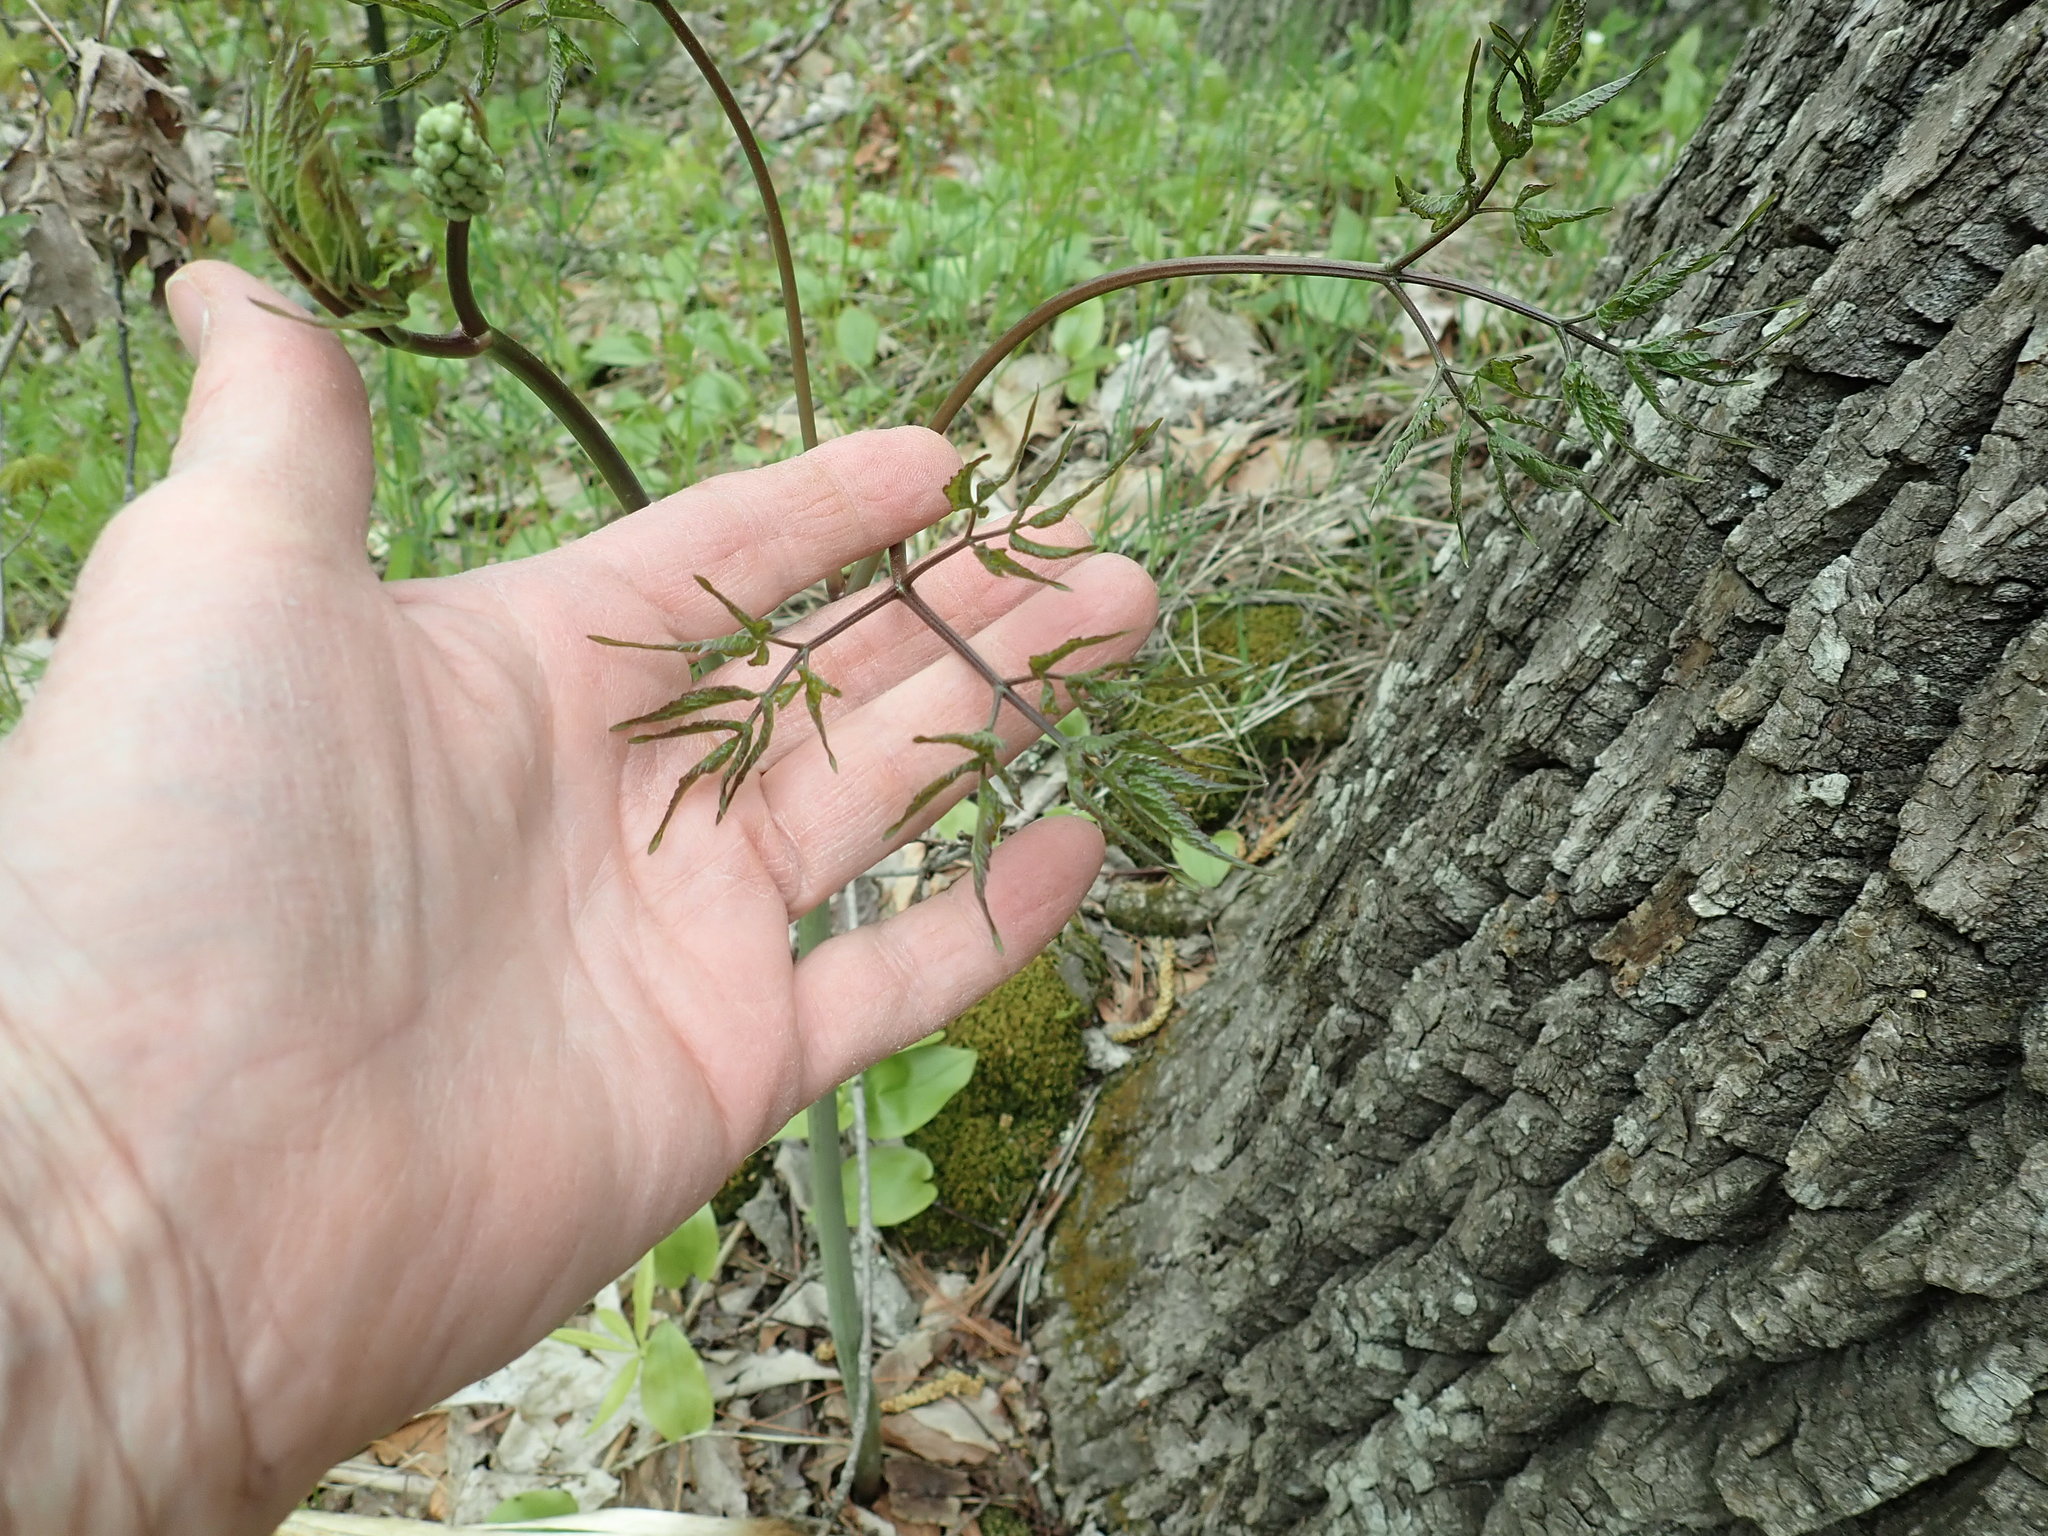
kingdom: Plantae
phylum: Tracheophyta
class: Magnoliopsida
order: Ranunculales
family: Ranunculaceae
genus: Actaea
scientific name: Actaea
